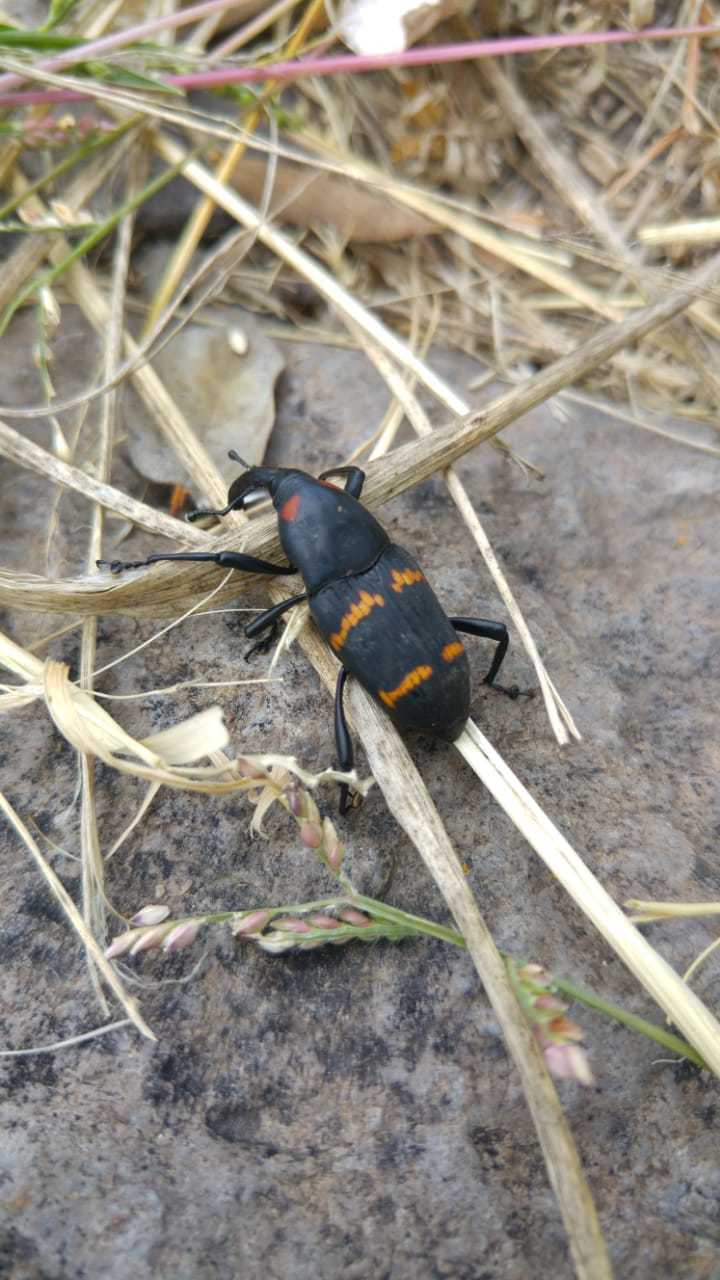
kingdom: Animalia
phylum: Arthropoda
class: Insecta
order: Coleoptera
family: Dryophthoridae
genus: Cactophagus
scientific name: Cactophagus spinolae
